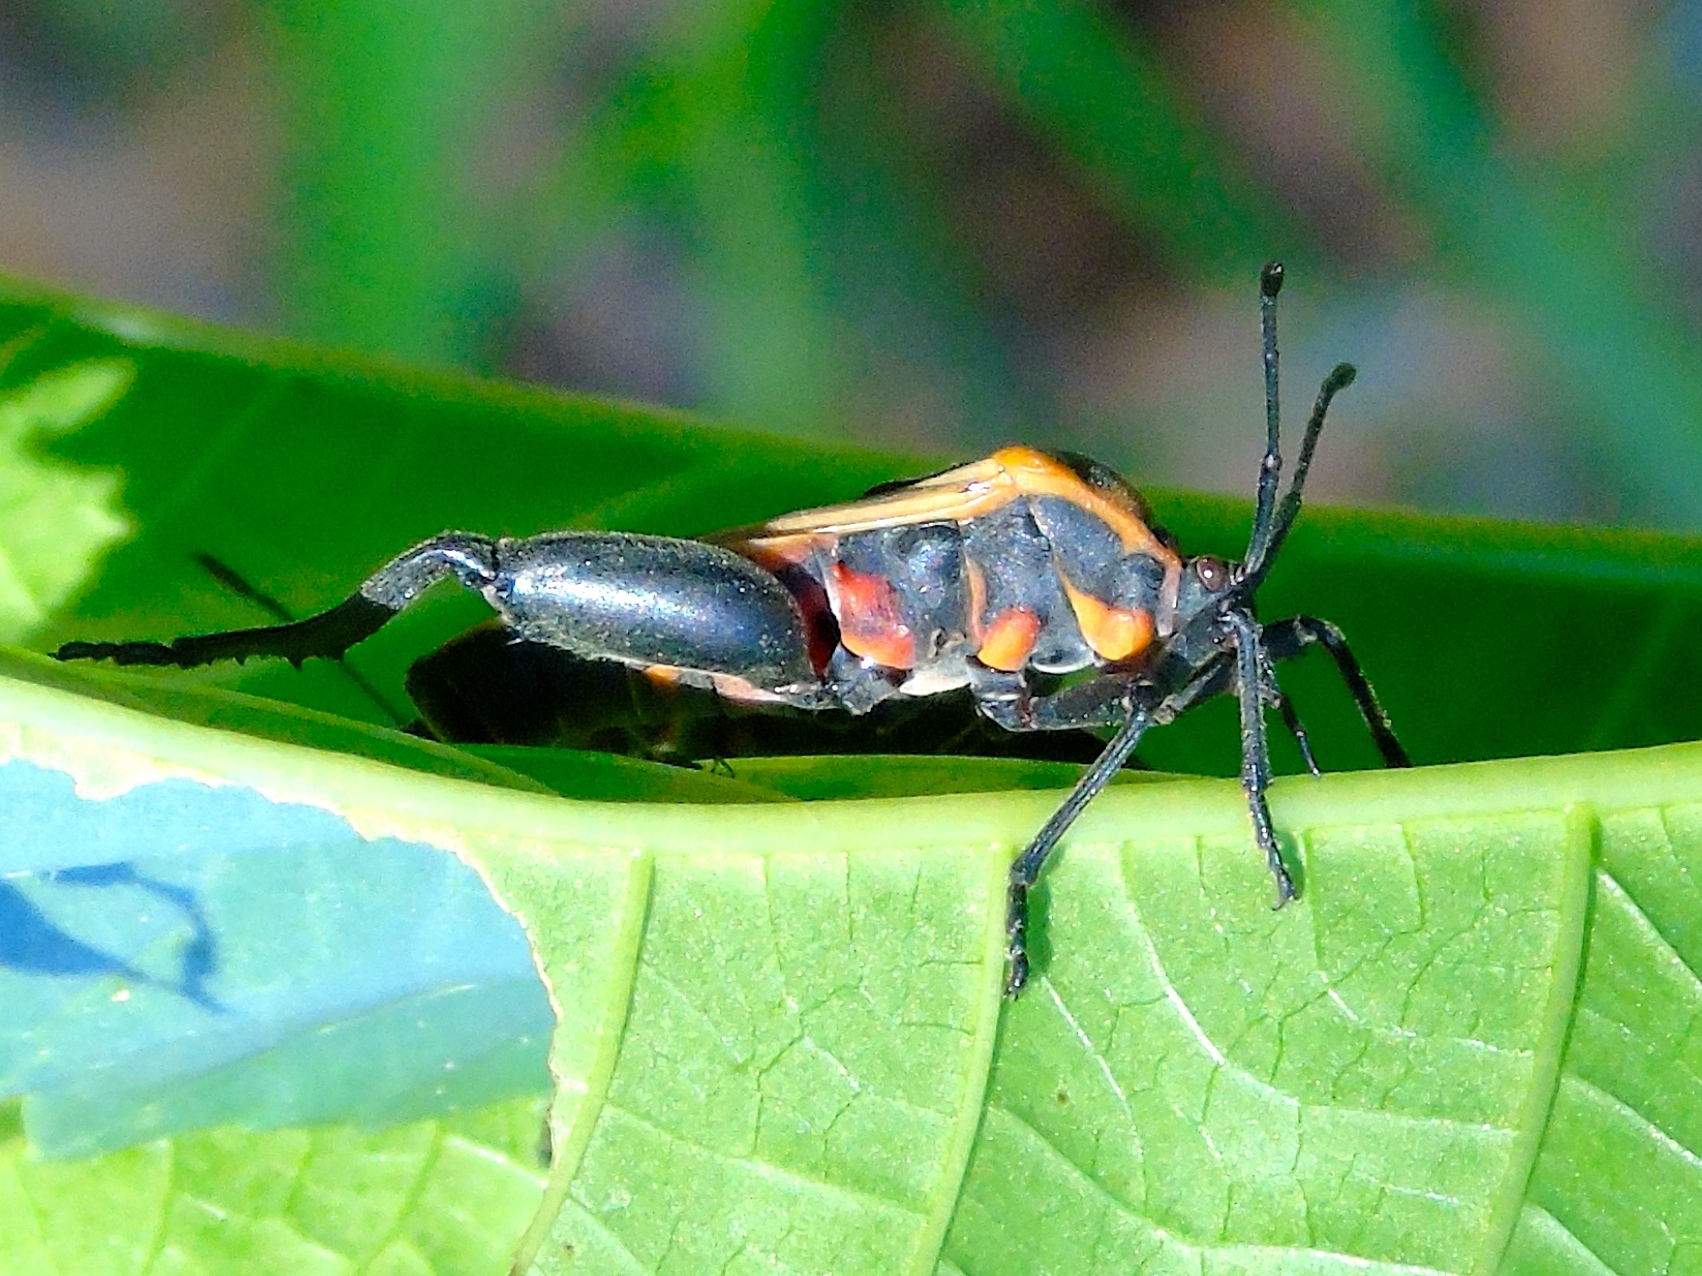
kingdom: Animalia
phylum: Arthropoda
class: Insecta
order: Hemiptera
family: Coreidae
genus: Sagotylus
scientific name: Sagotylus confluens
